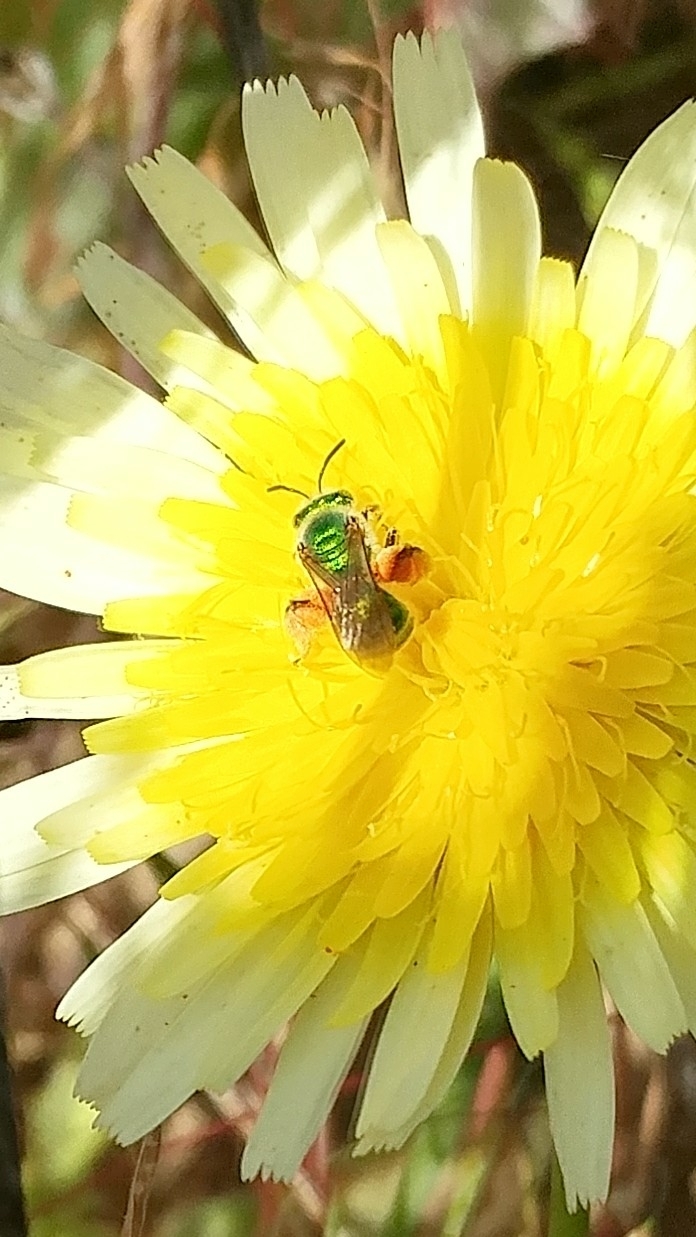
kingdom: Animalia
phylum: Arthropoda
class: Insecta
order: Hymenoptera
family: Halictidae
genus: Agapostemon
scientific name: Agapostemon
